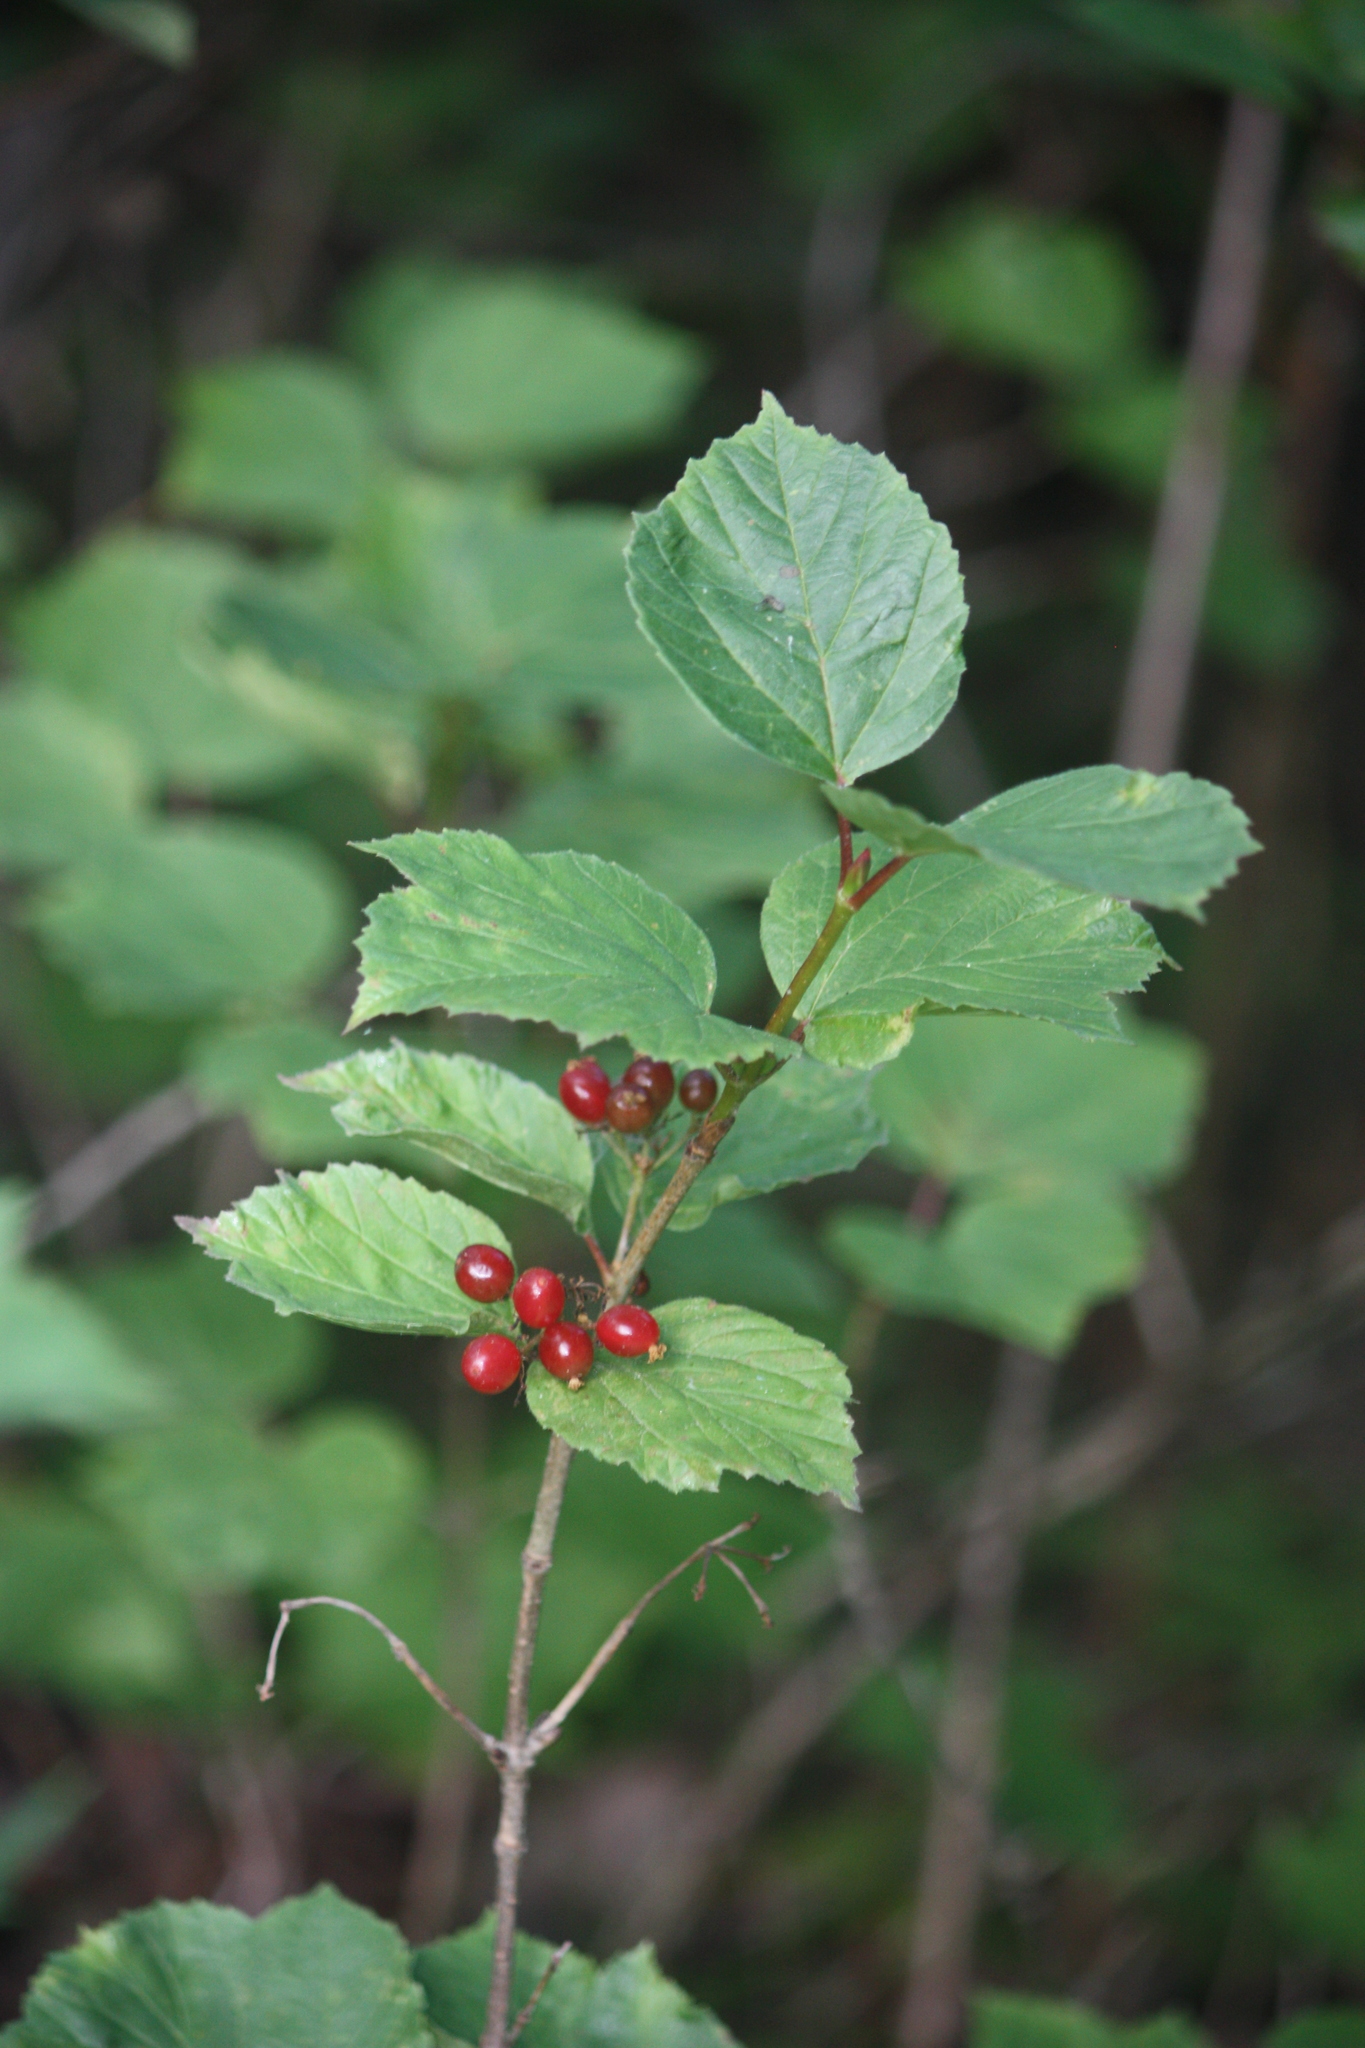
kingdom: Plantae
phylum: Tracheophyta
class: Magnoliopsida
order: Dipsacales
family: Viburnaceae
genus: Viburnum
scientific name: Viburnum edule
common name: Mooseberry
